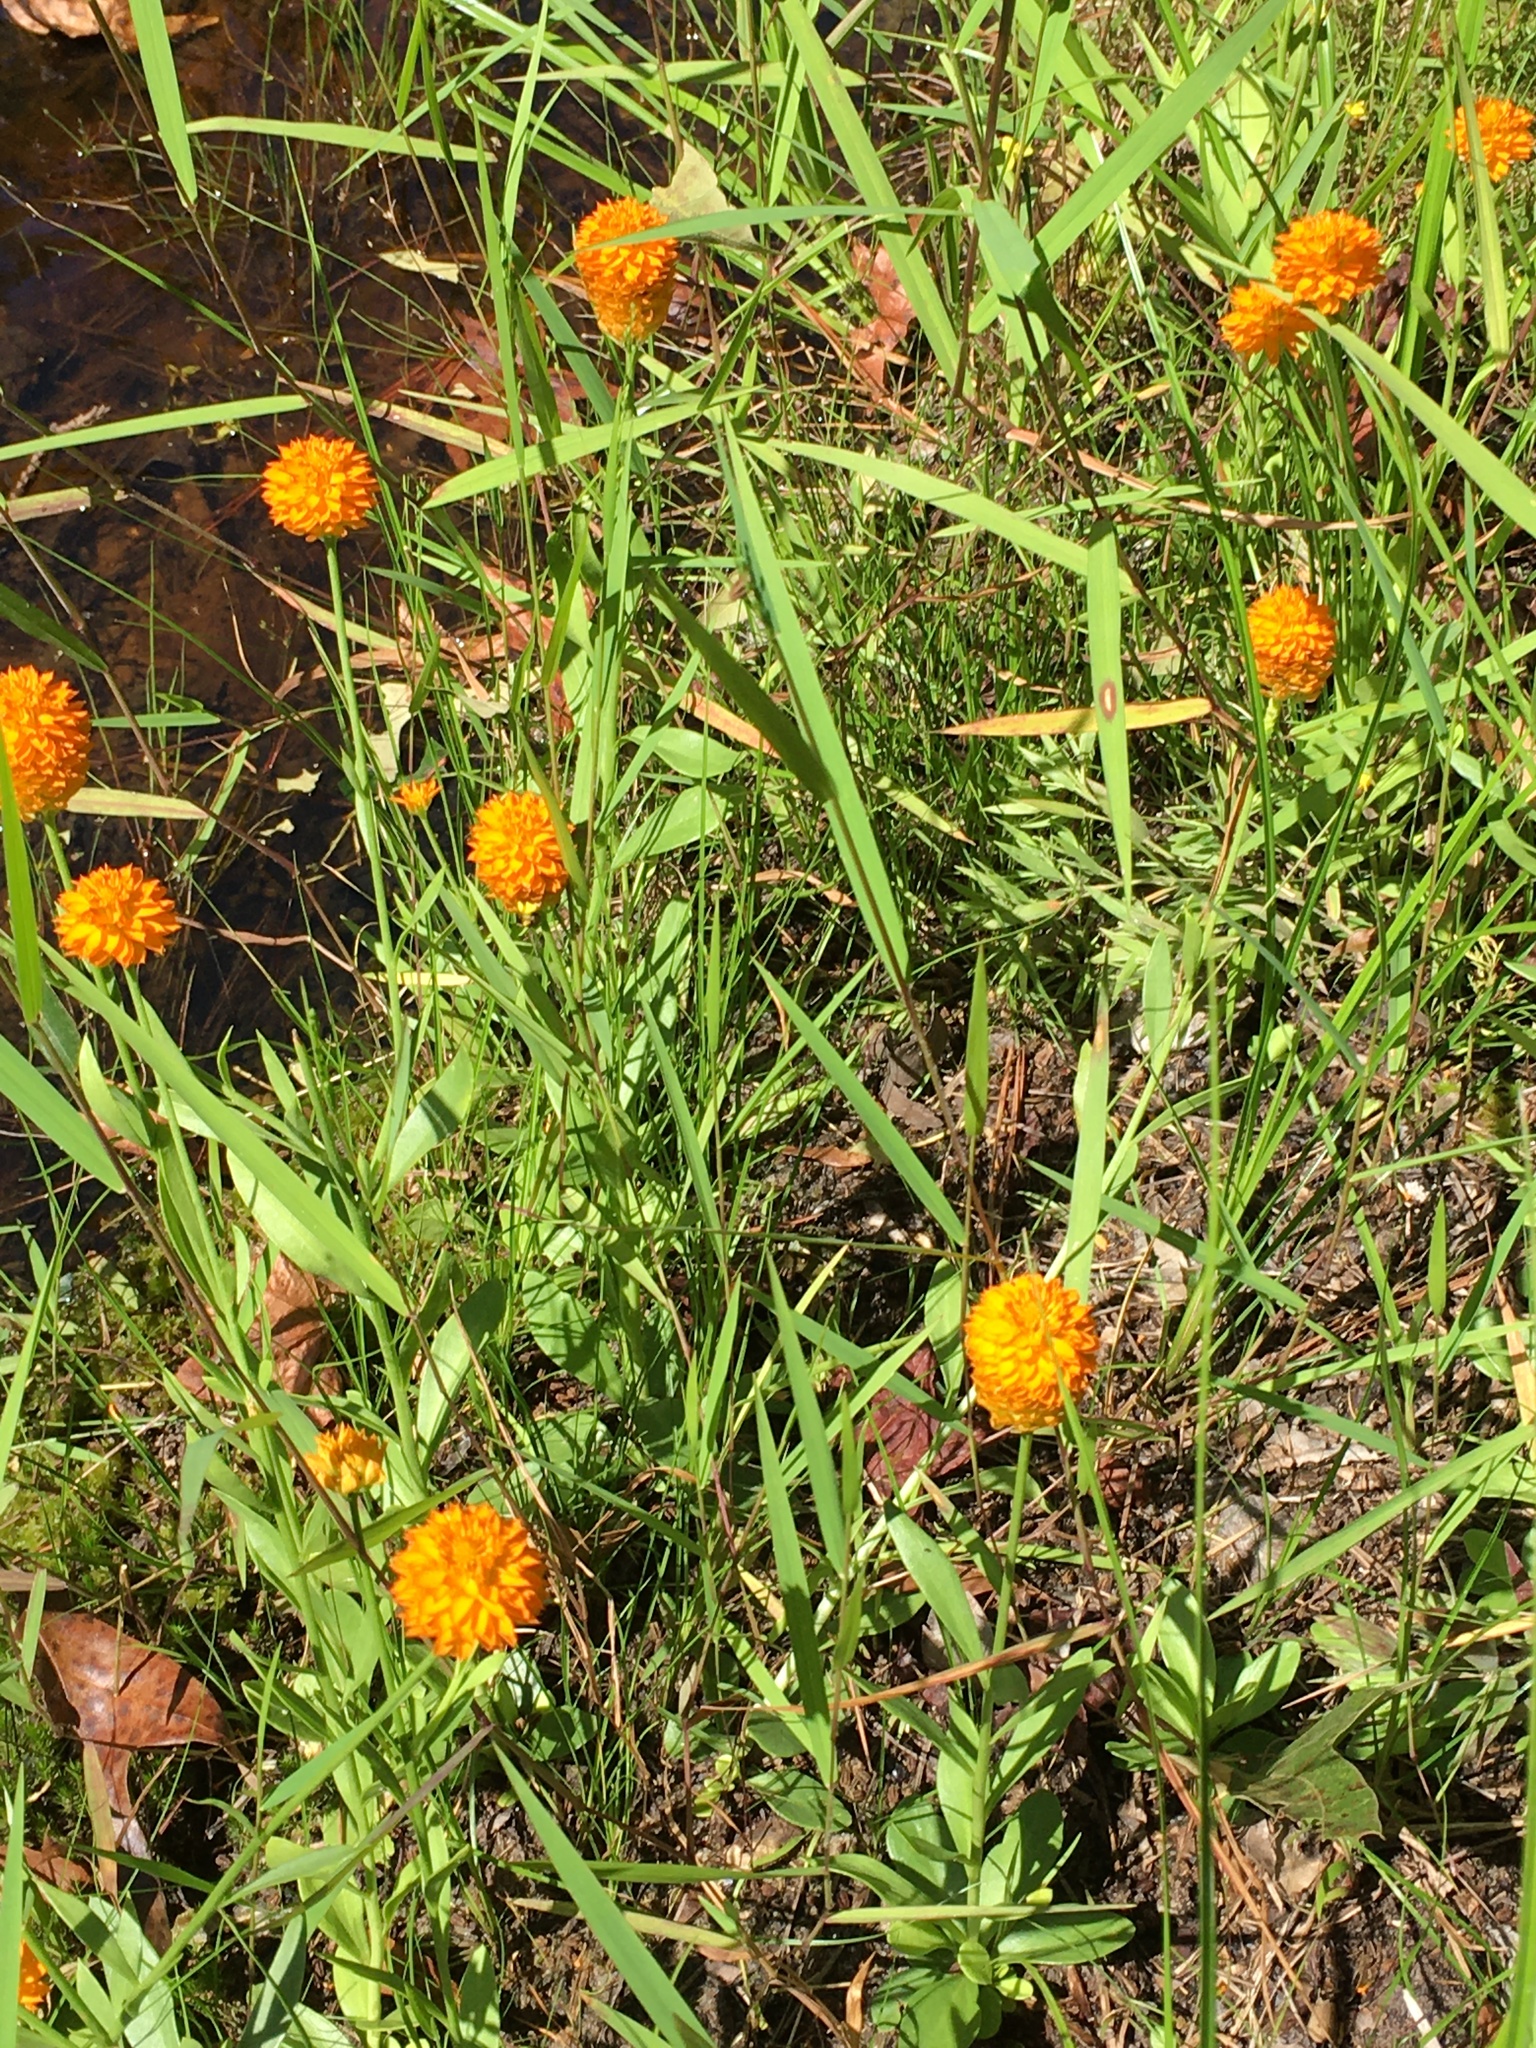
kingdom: Plantae
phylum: Tracheophyta
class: Magnoliopsida
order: Fabales
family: Polygalaceae
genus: Polygala
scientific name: Polygala lutea
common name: Orange milkwort
